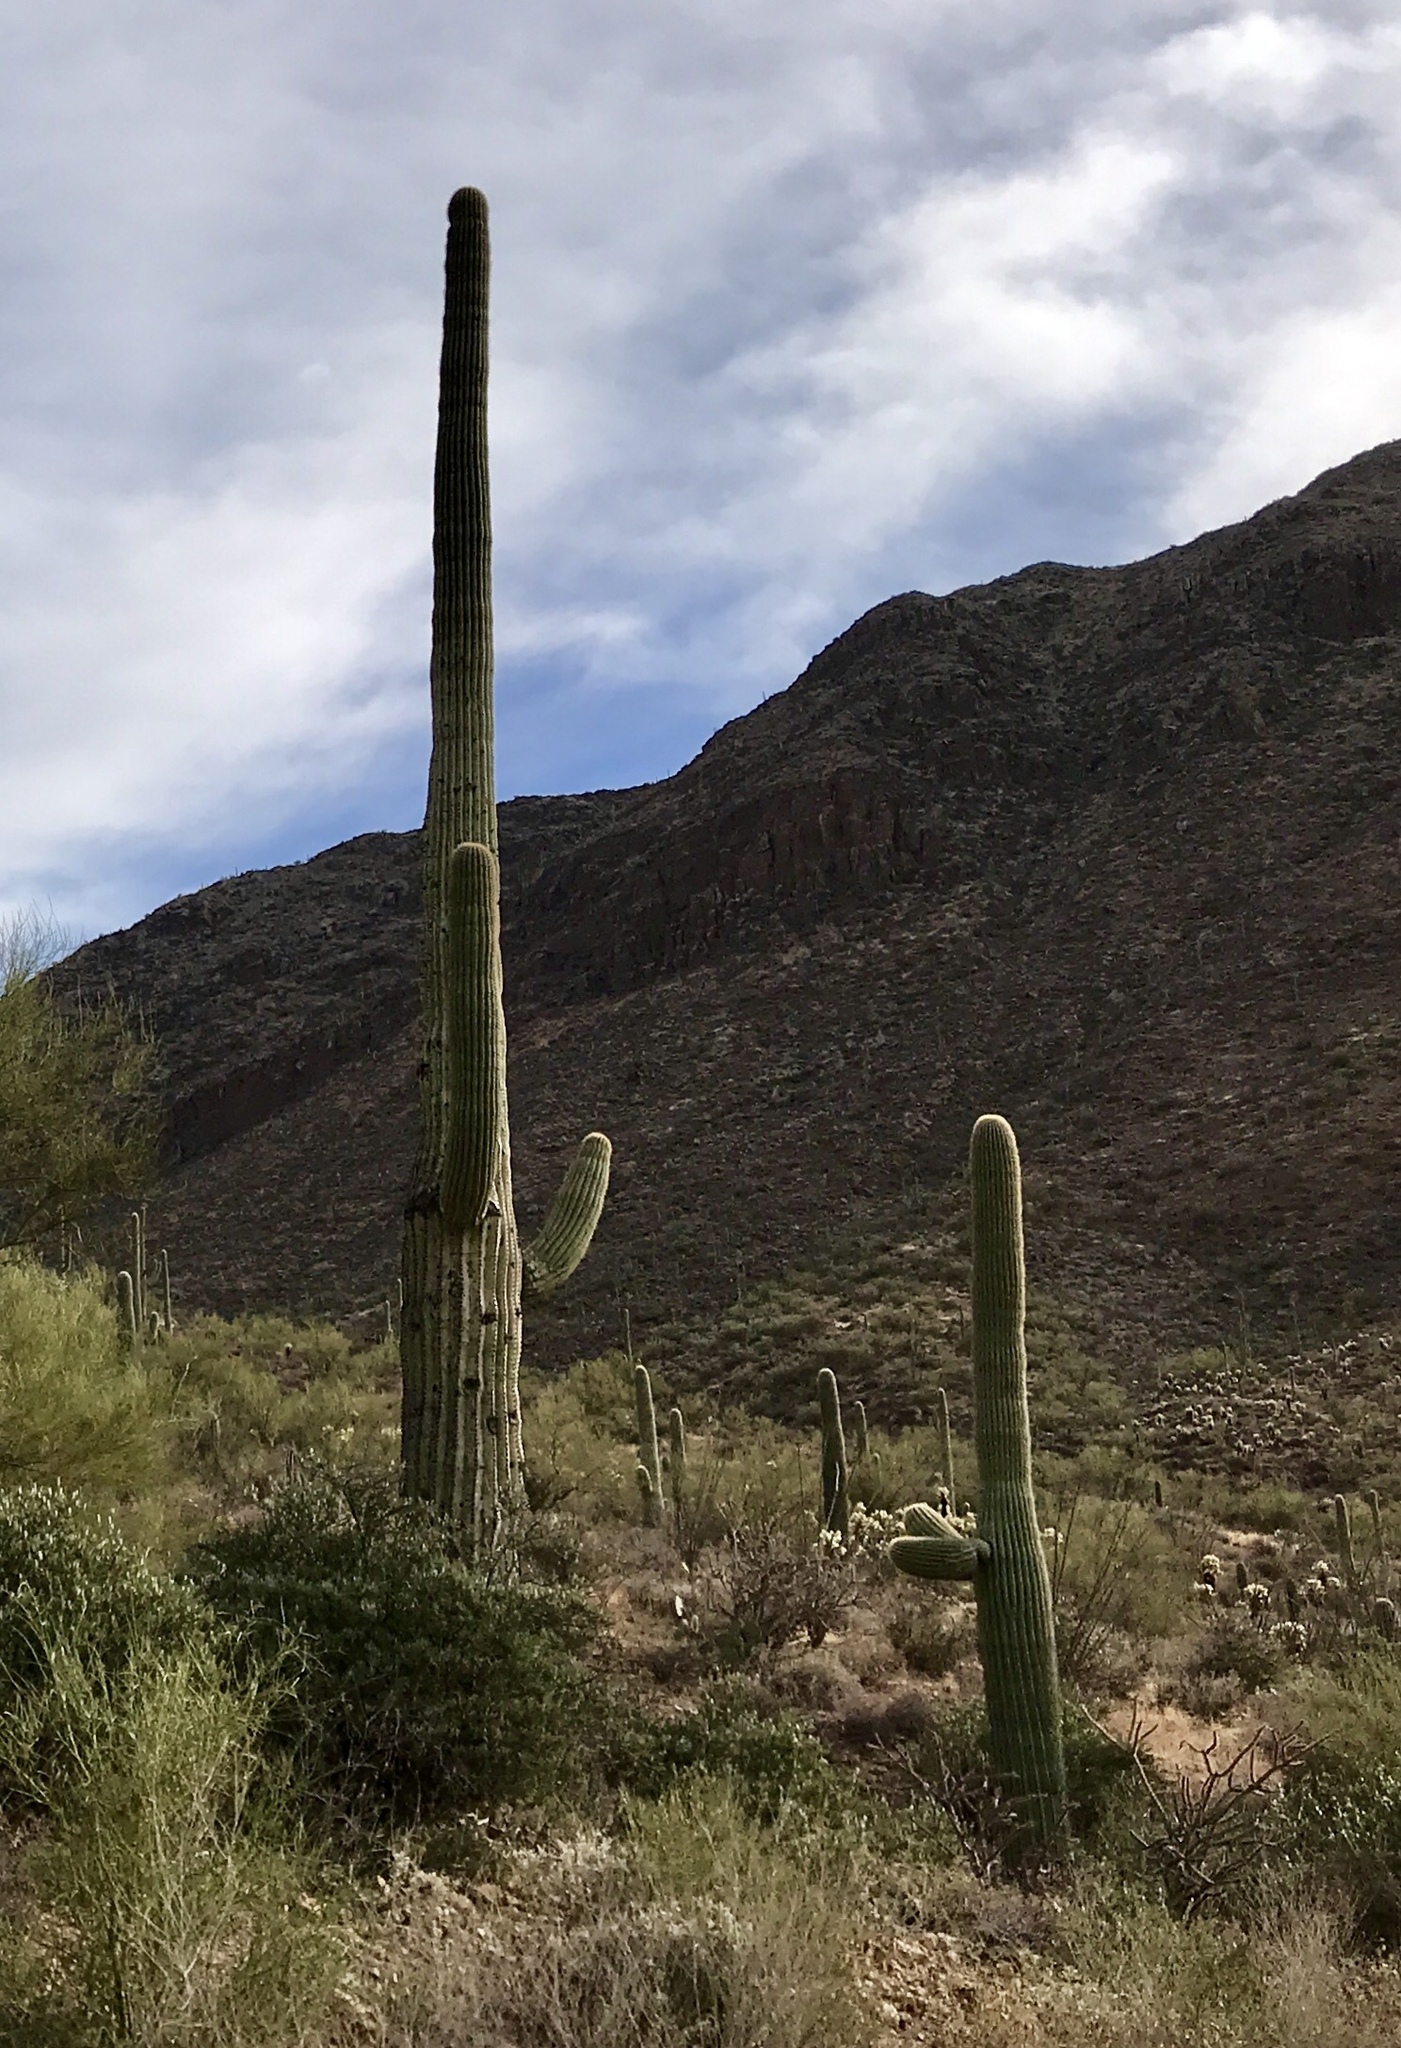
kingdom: Plantae
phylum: Tracheophyta
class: Magnoliopsida
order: Caryophyllales
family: Cactaceae
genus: Carnegiea
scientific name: Carnegiea gigantea
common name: Saguaro
